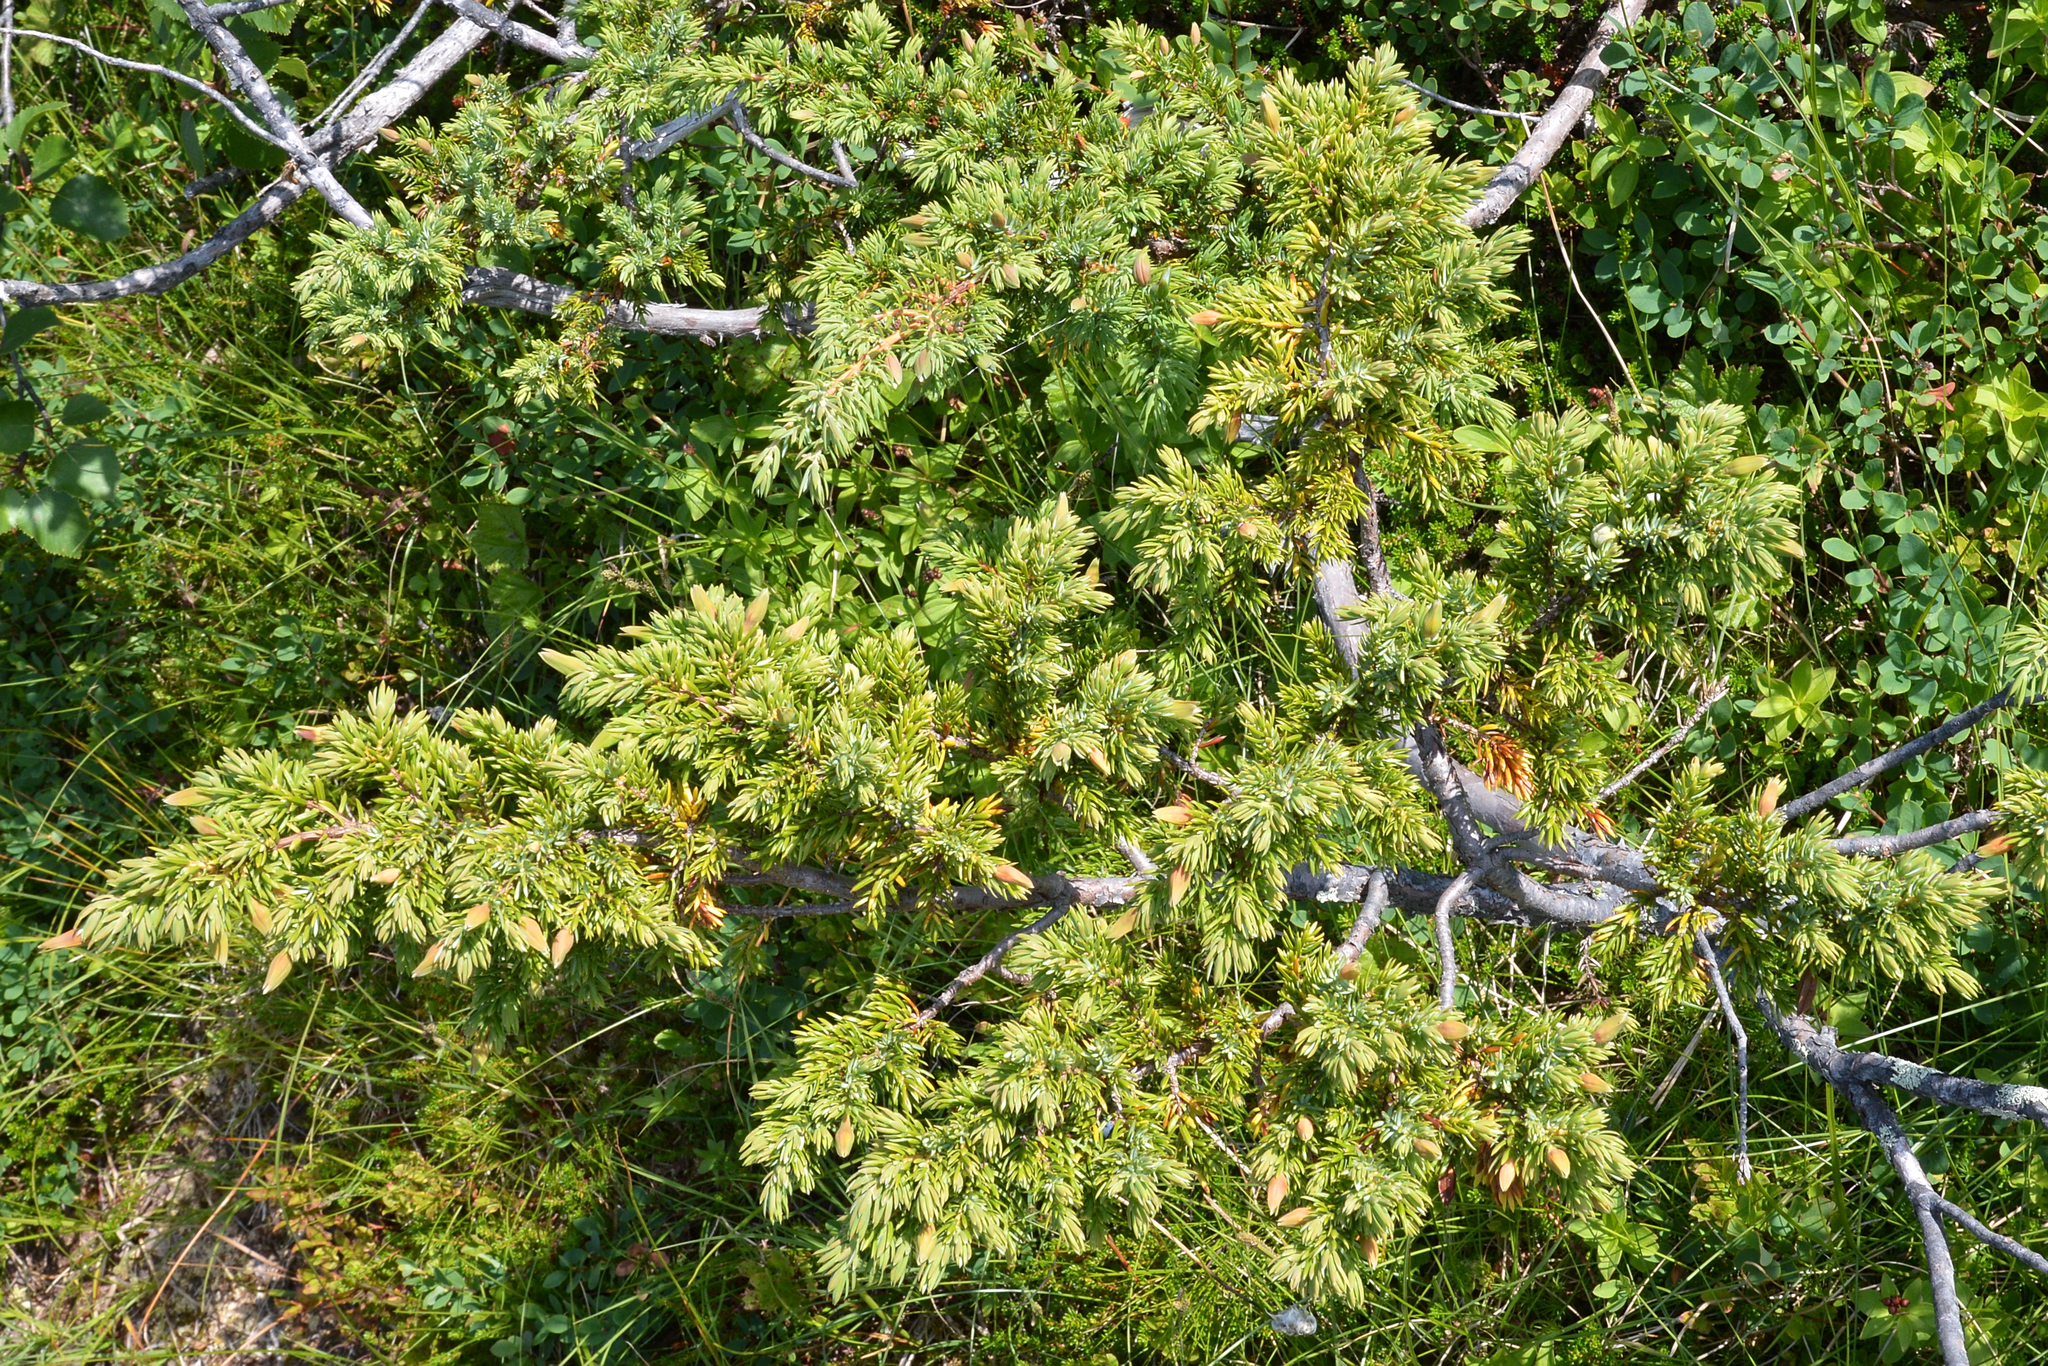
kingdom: Plantae
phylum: Tracheophyta
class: Pinopsida
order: Pinales
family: Cupressaceae
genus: Juniperus
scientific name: Juniperus communis
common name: Common juniper
